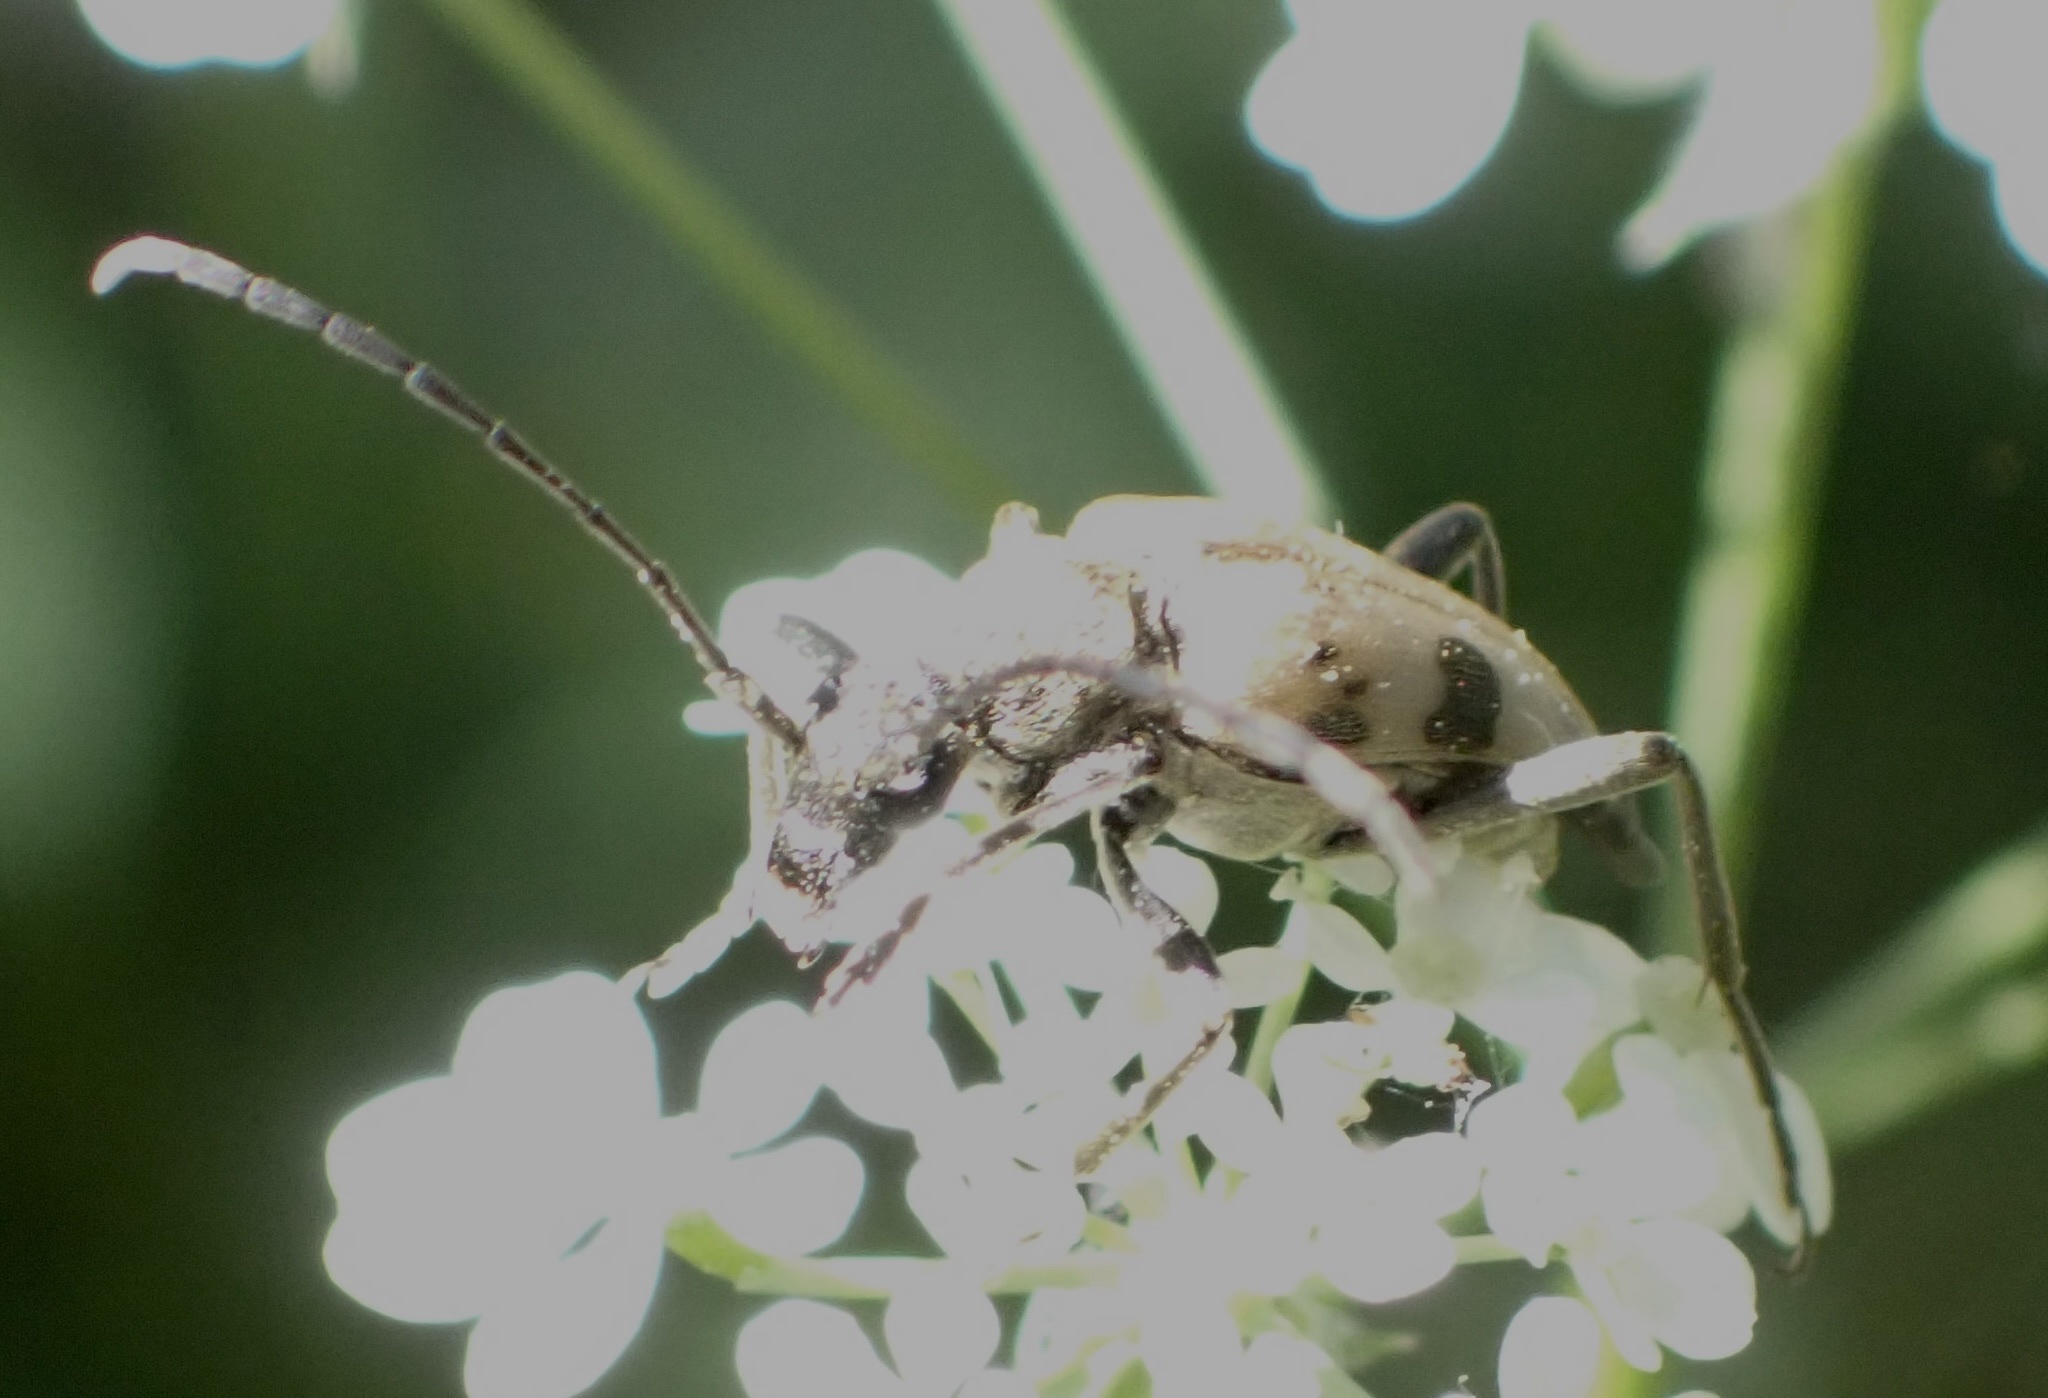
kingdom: Animalia
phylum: Arthropoda
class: Insecta
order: Coleoptera
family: Cerambycidae
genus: Pachytodes
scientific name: Pachytodes cerambyciformis
